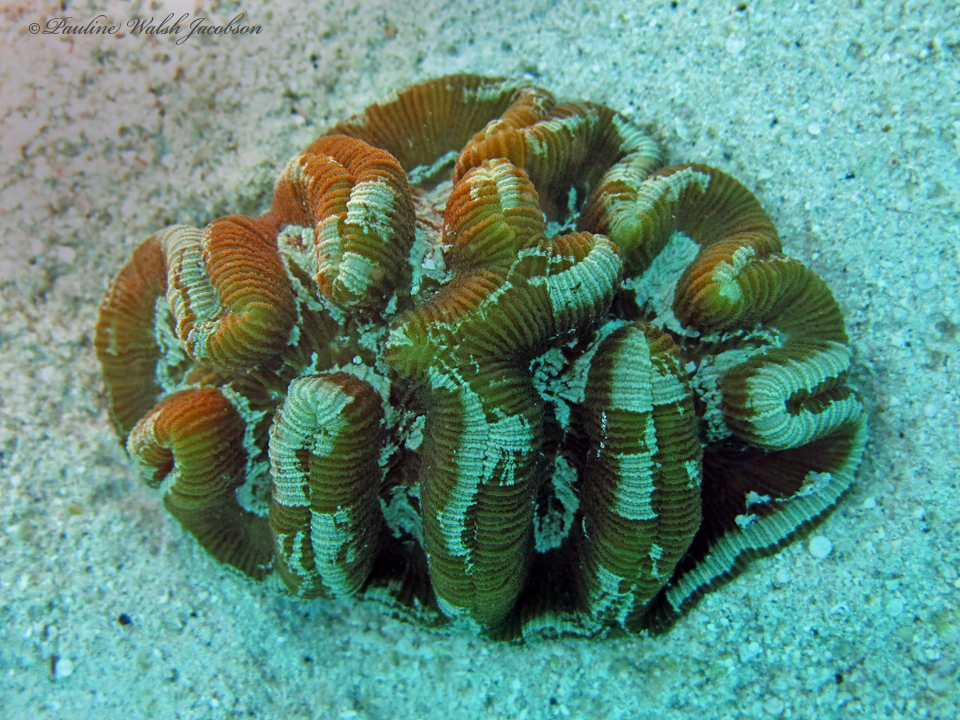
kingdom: Animalia
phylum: Cnidaria
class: Anthozoa
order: Scleractinia
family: Faviidae
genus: Manicina
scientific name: Manicina areolata
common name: Rose coral
